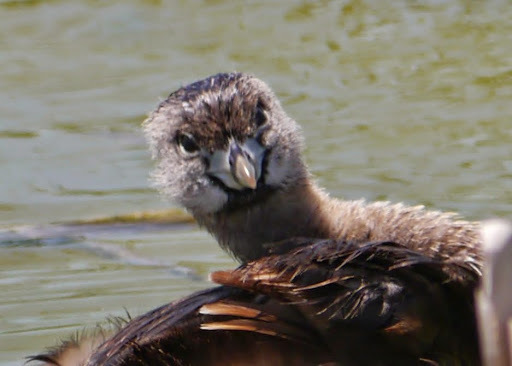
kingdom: Animalia
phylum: Chordata
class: Aves
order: Podicipediformes
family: Podicipedidae
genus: Podilymbus
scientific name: Podilymbus podiceps
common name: Pied-billed grebe
